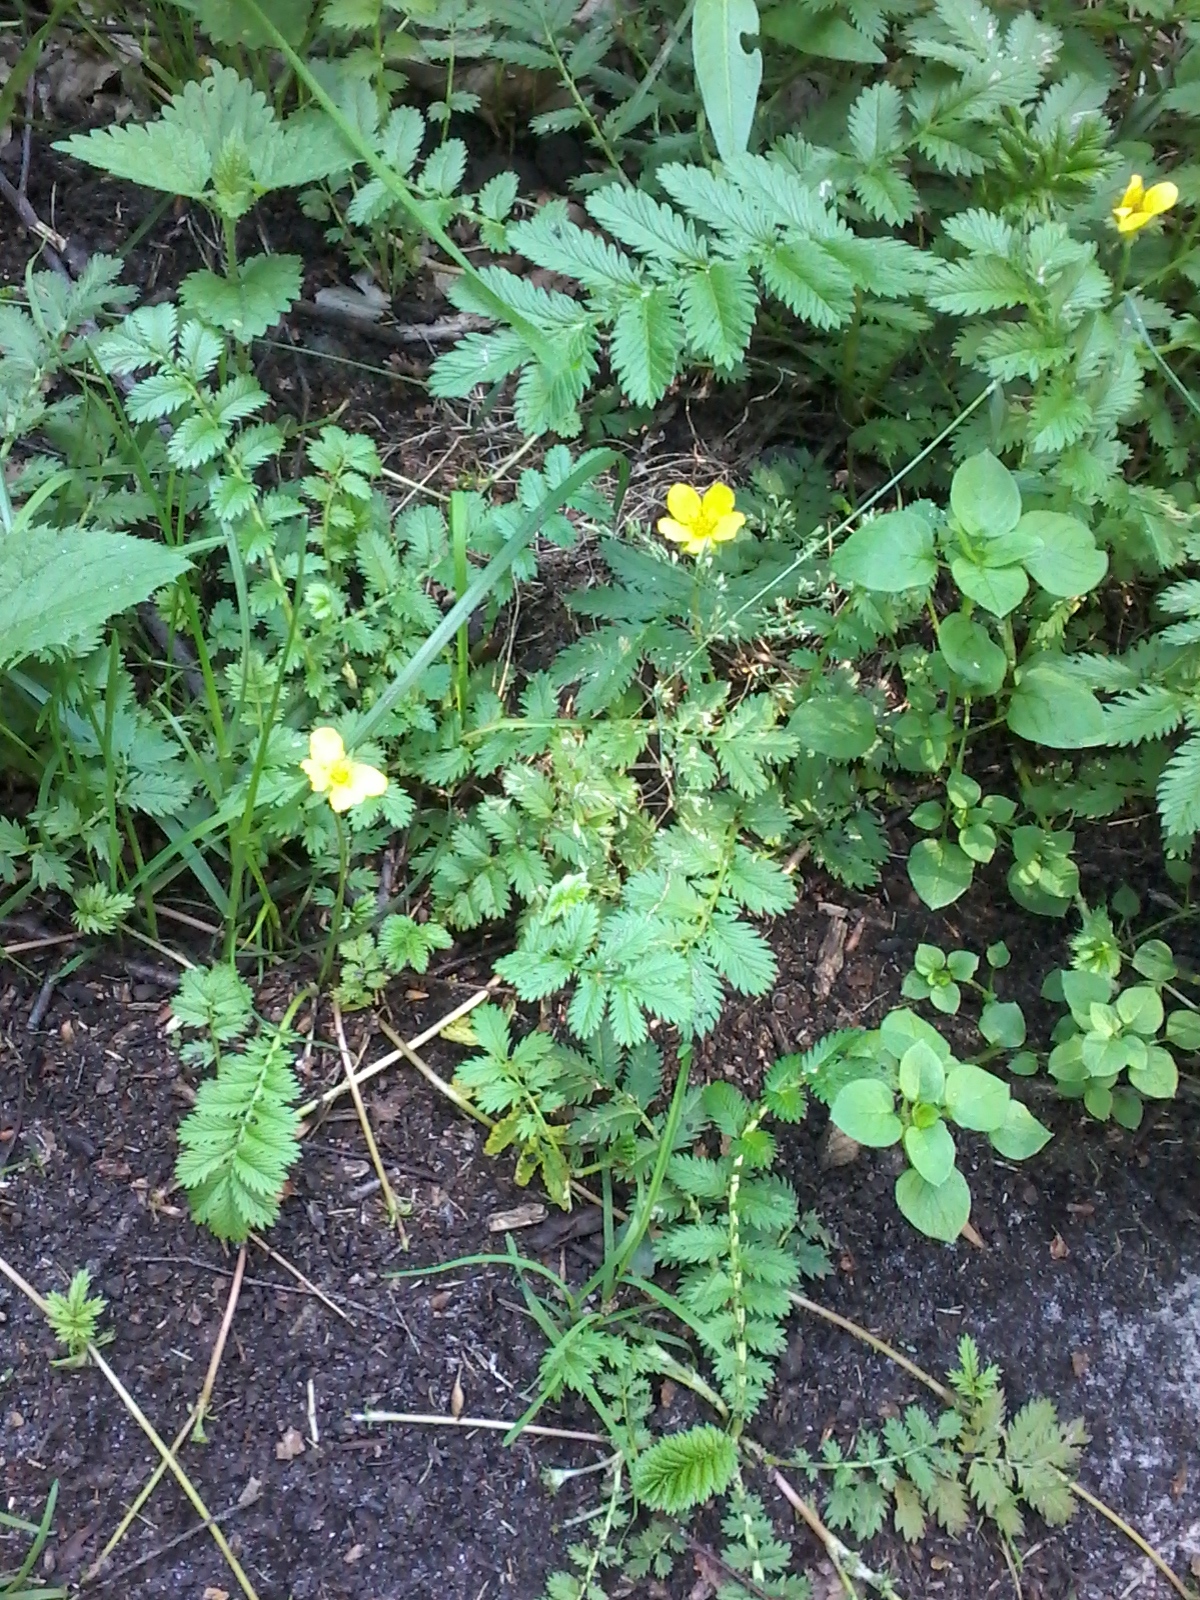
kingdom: Plantae
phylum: Tracheophyta
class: Magnoliopsida
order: Rosales
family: Rosaceae
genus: Argentina
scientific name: Argentina anserina
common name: Common silverweed
